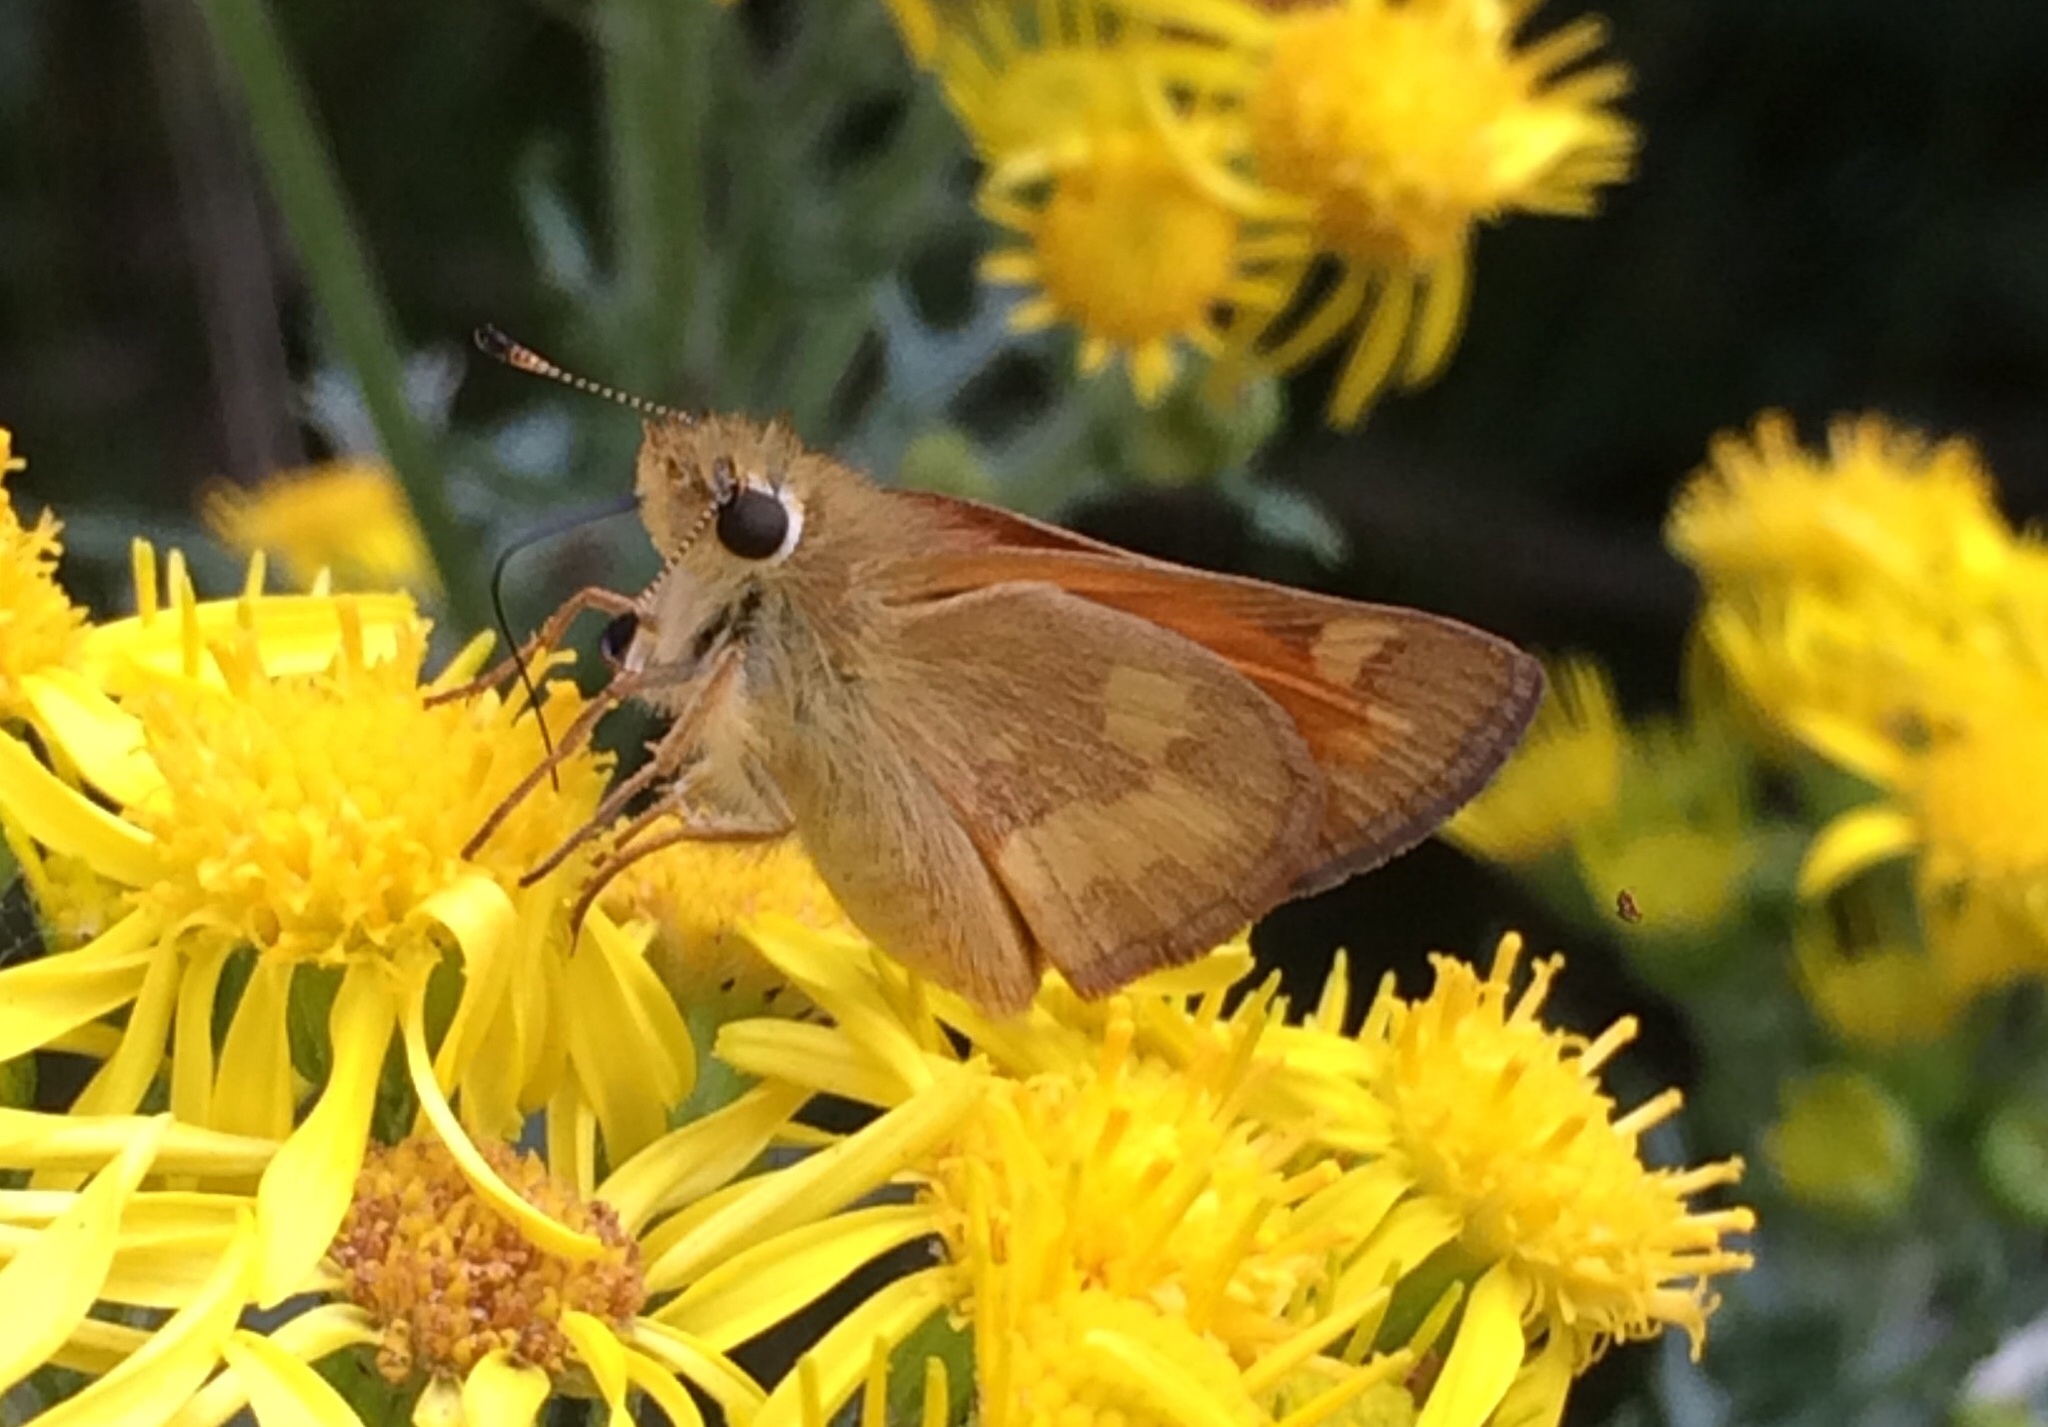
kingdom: Animalia
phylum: Arthropoda
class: Insecta
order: Lepidoptera
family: Hesperiidae
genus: Ochlodes
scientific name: Ochlodes sylvanoides
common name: Woodland skipper
